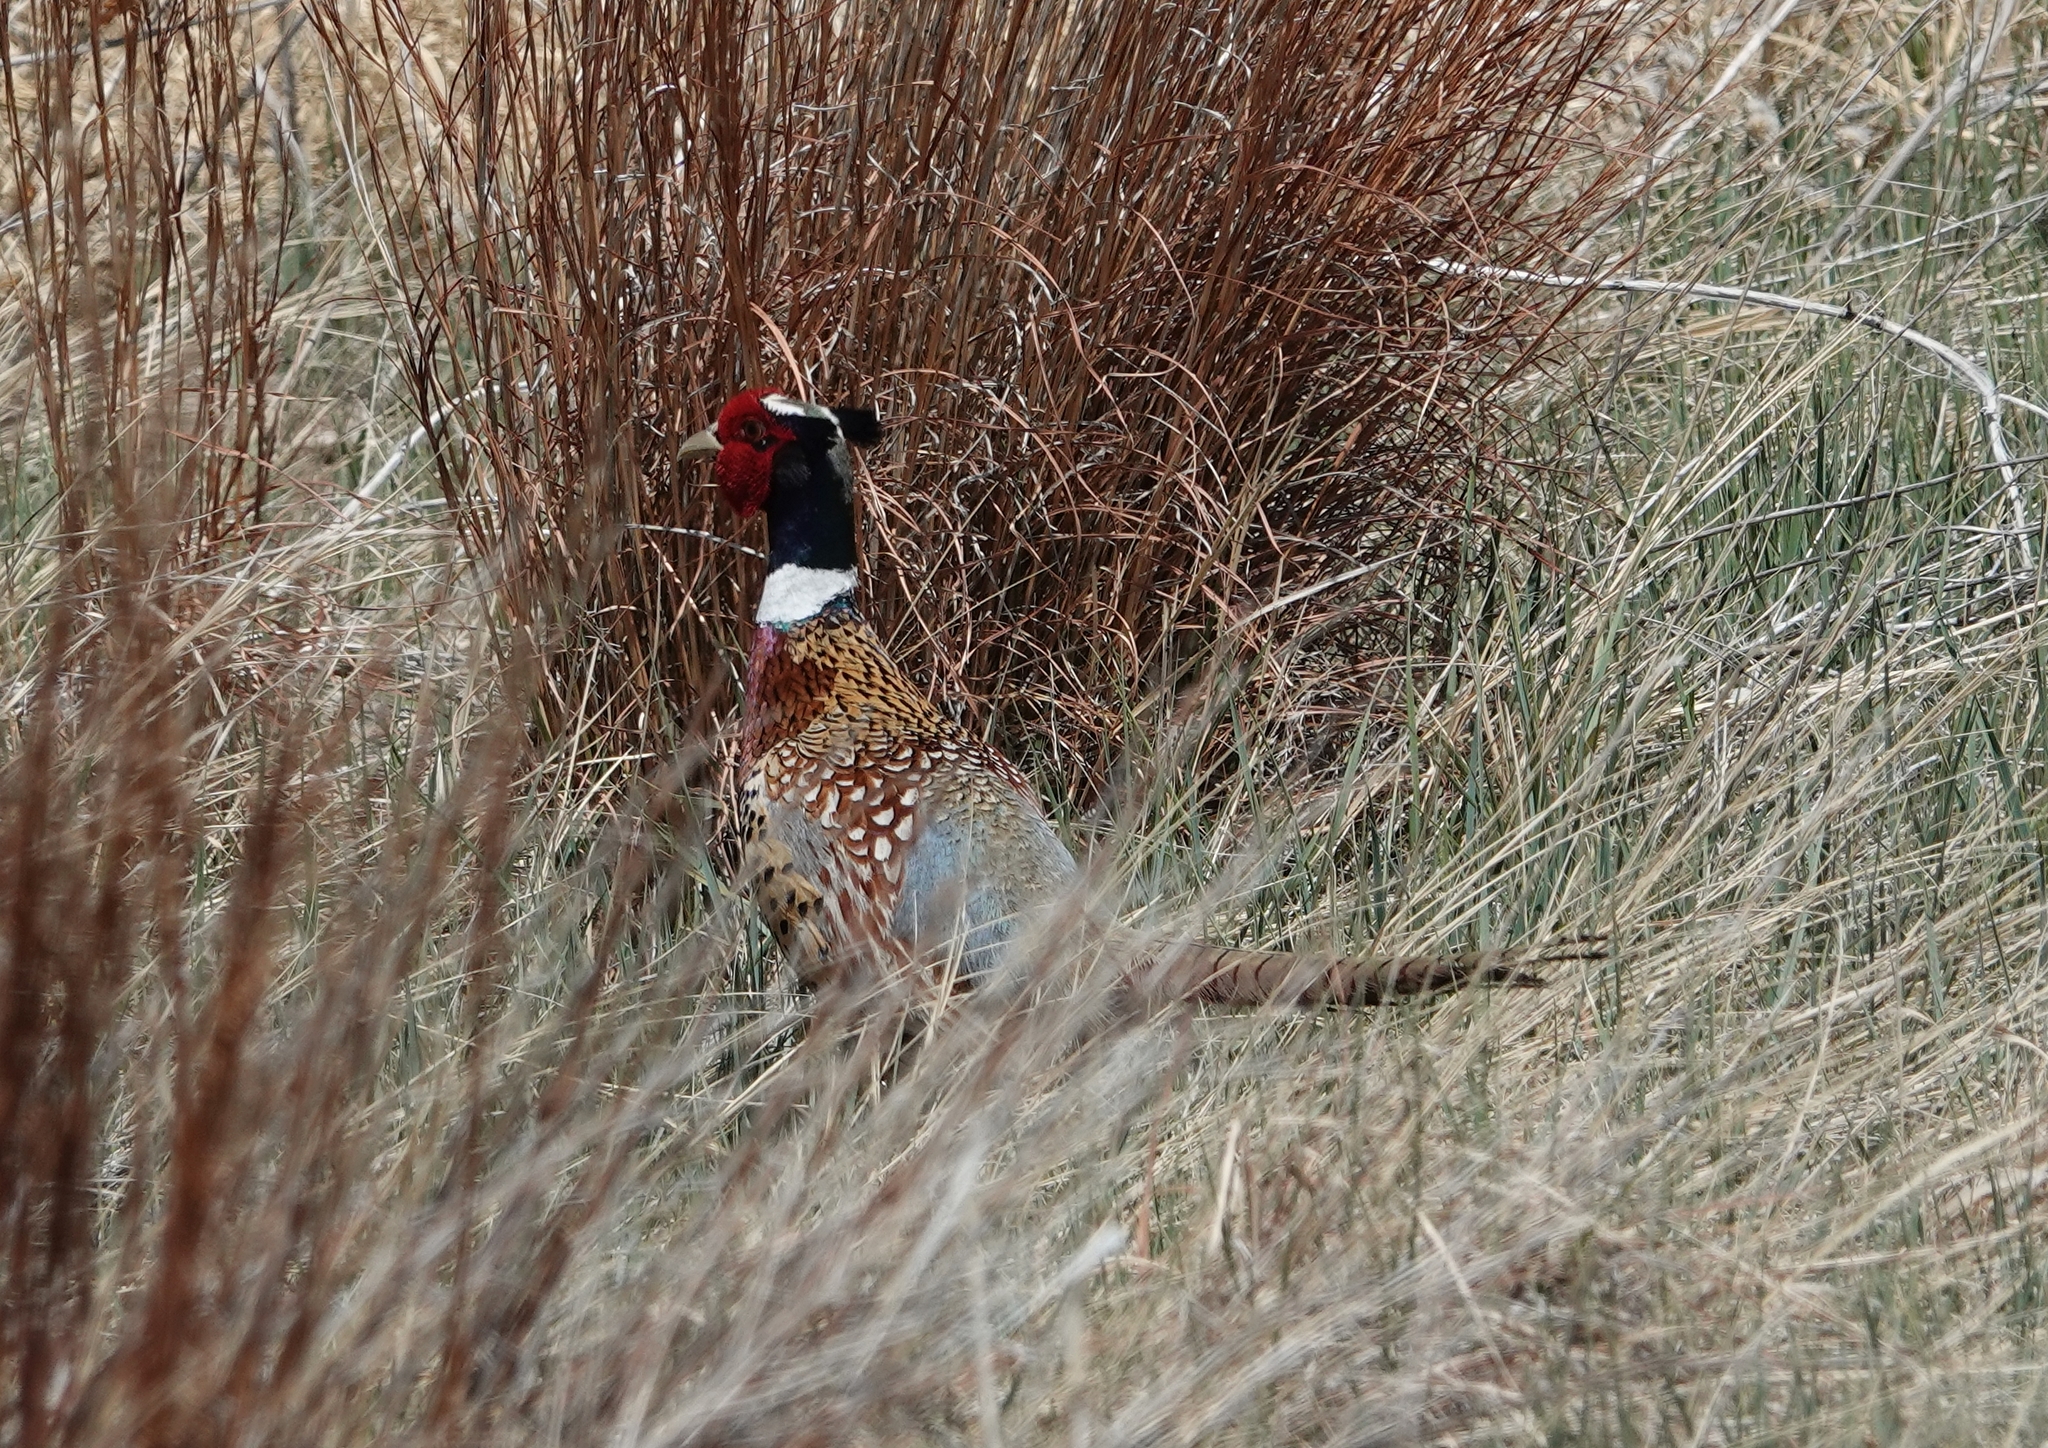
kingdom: Animalia
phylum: Chordata
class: Aves
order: Galliformes
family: Phasianidae
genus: Phasianus
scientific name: Phasianus colchicus
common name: Common pheasant
